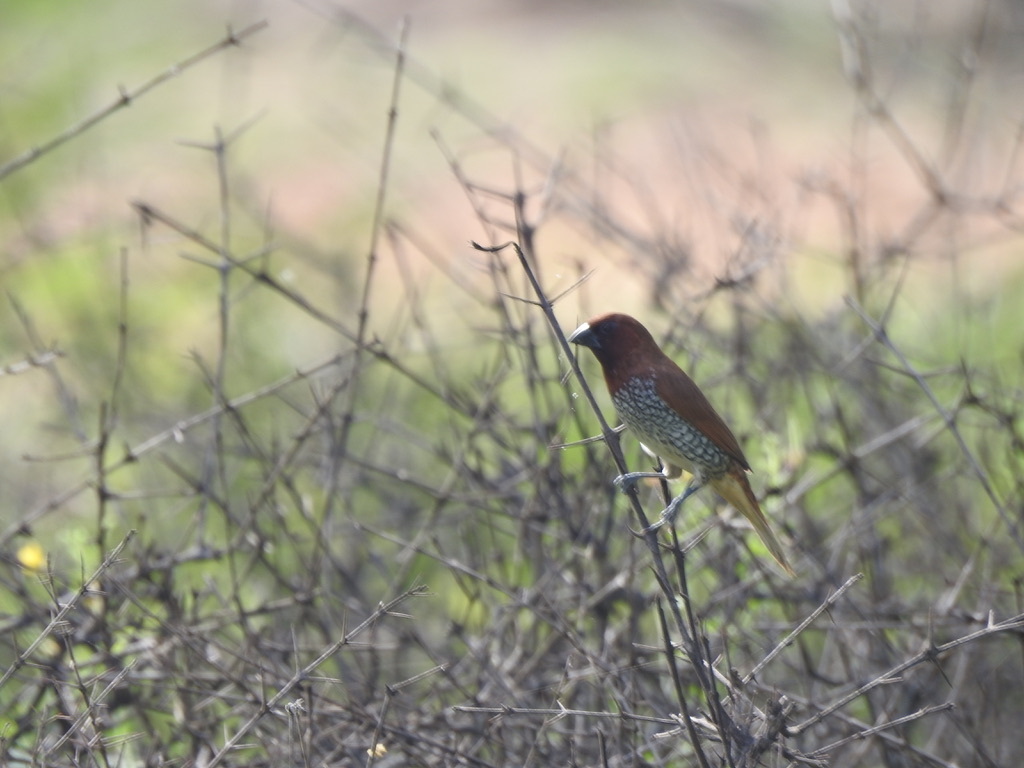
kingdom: Animalia
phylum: Chordata
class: Aves
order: Passeriformes
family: Estrildidae
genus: Lonchura
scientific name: Lonchura punctulata
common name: Scaly-breasted munia
